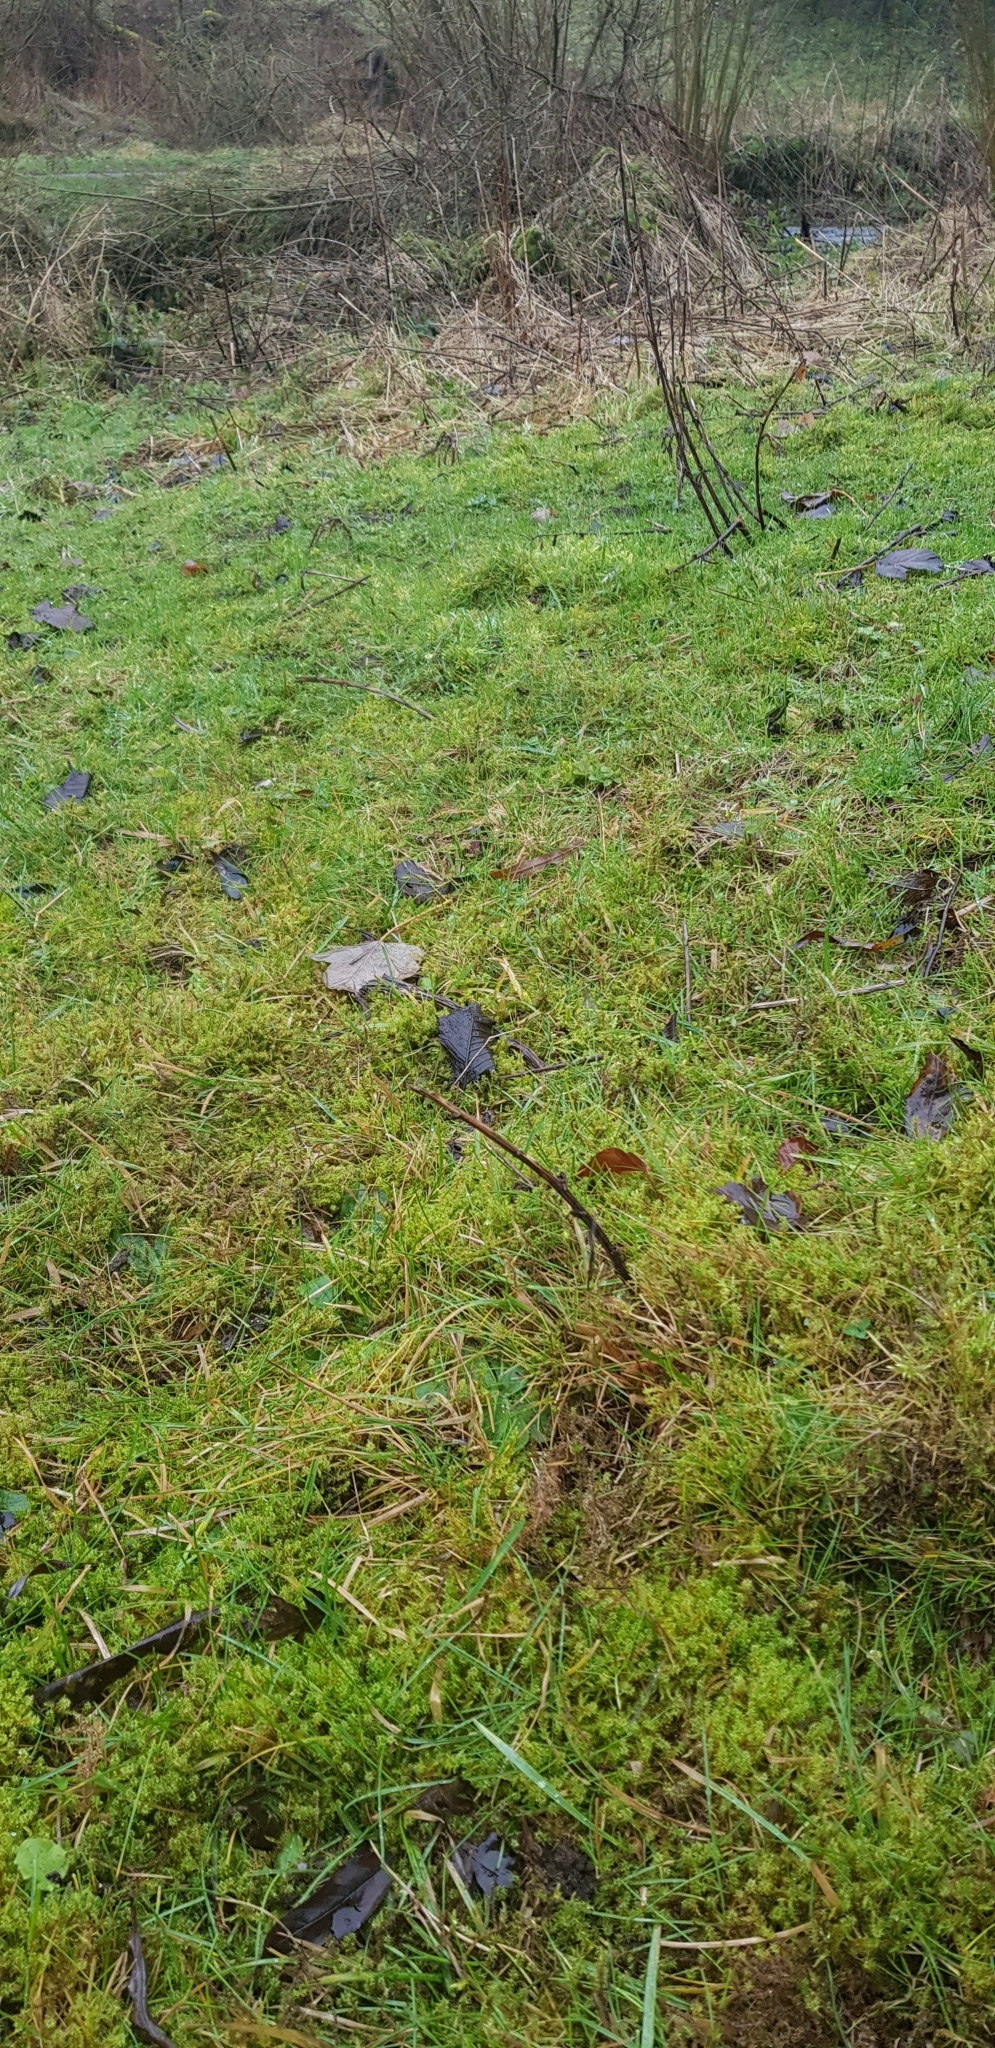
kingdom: Plantae
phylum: Bryophyta
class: Bryopsida
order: Hypnales
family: Hylocomiaceae
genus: Rhytidiadelphus
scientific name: Rhytidiadelphus squarrosus
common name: Springy turf-moss
